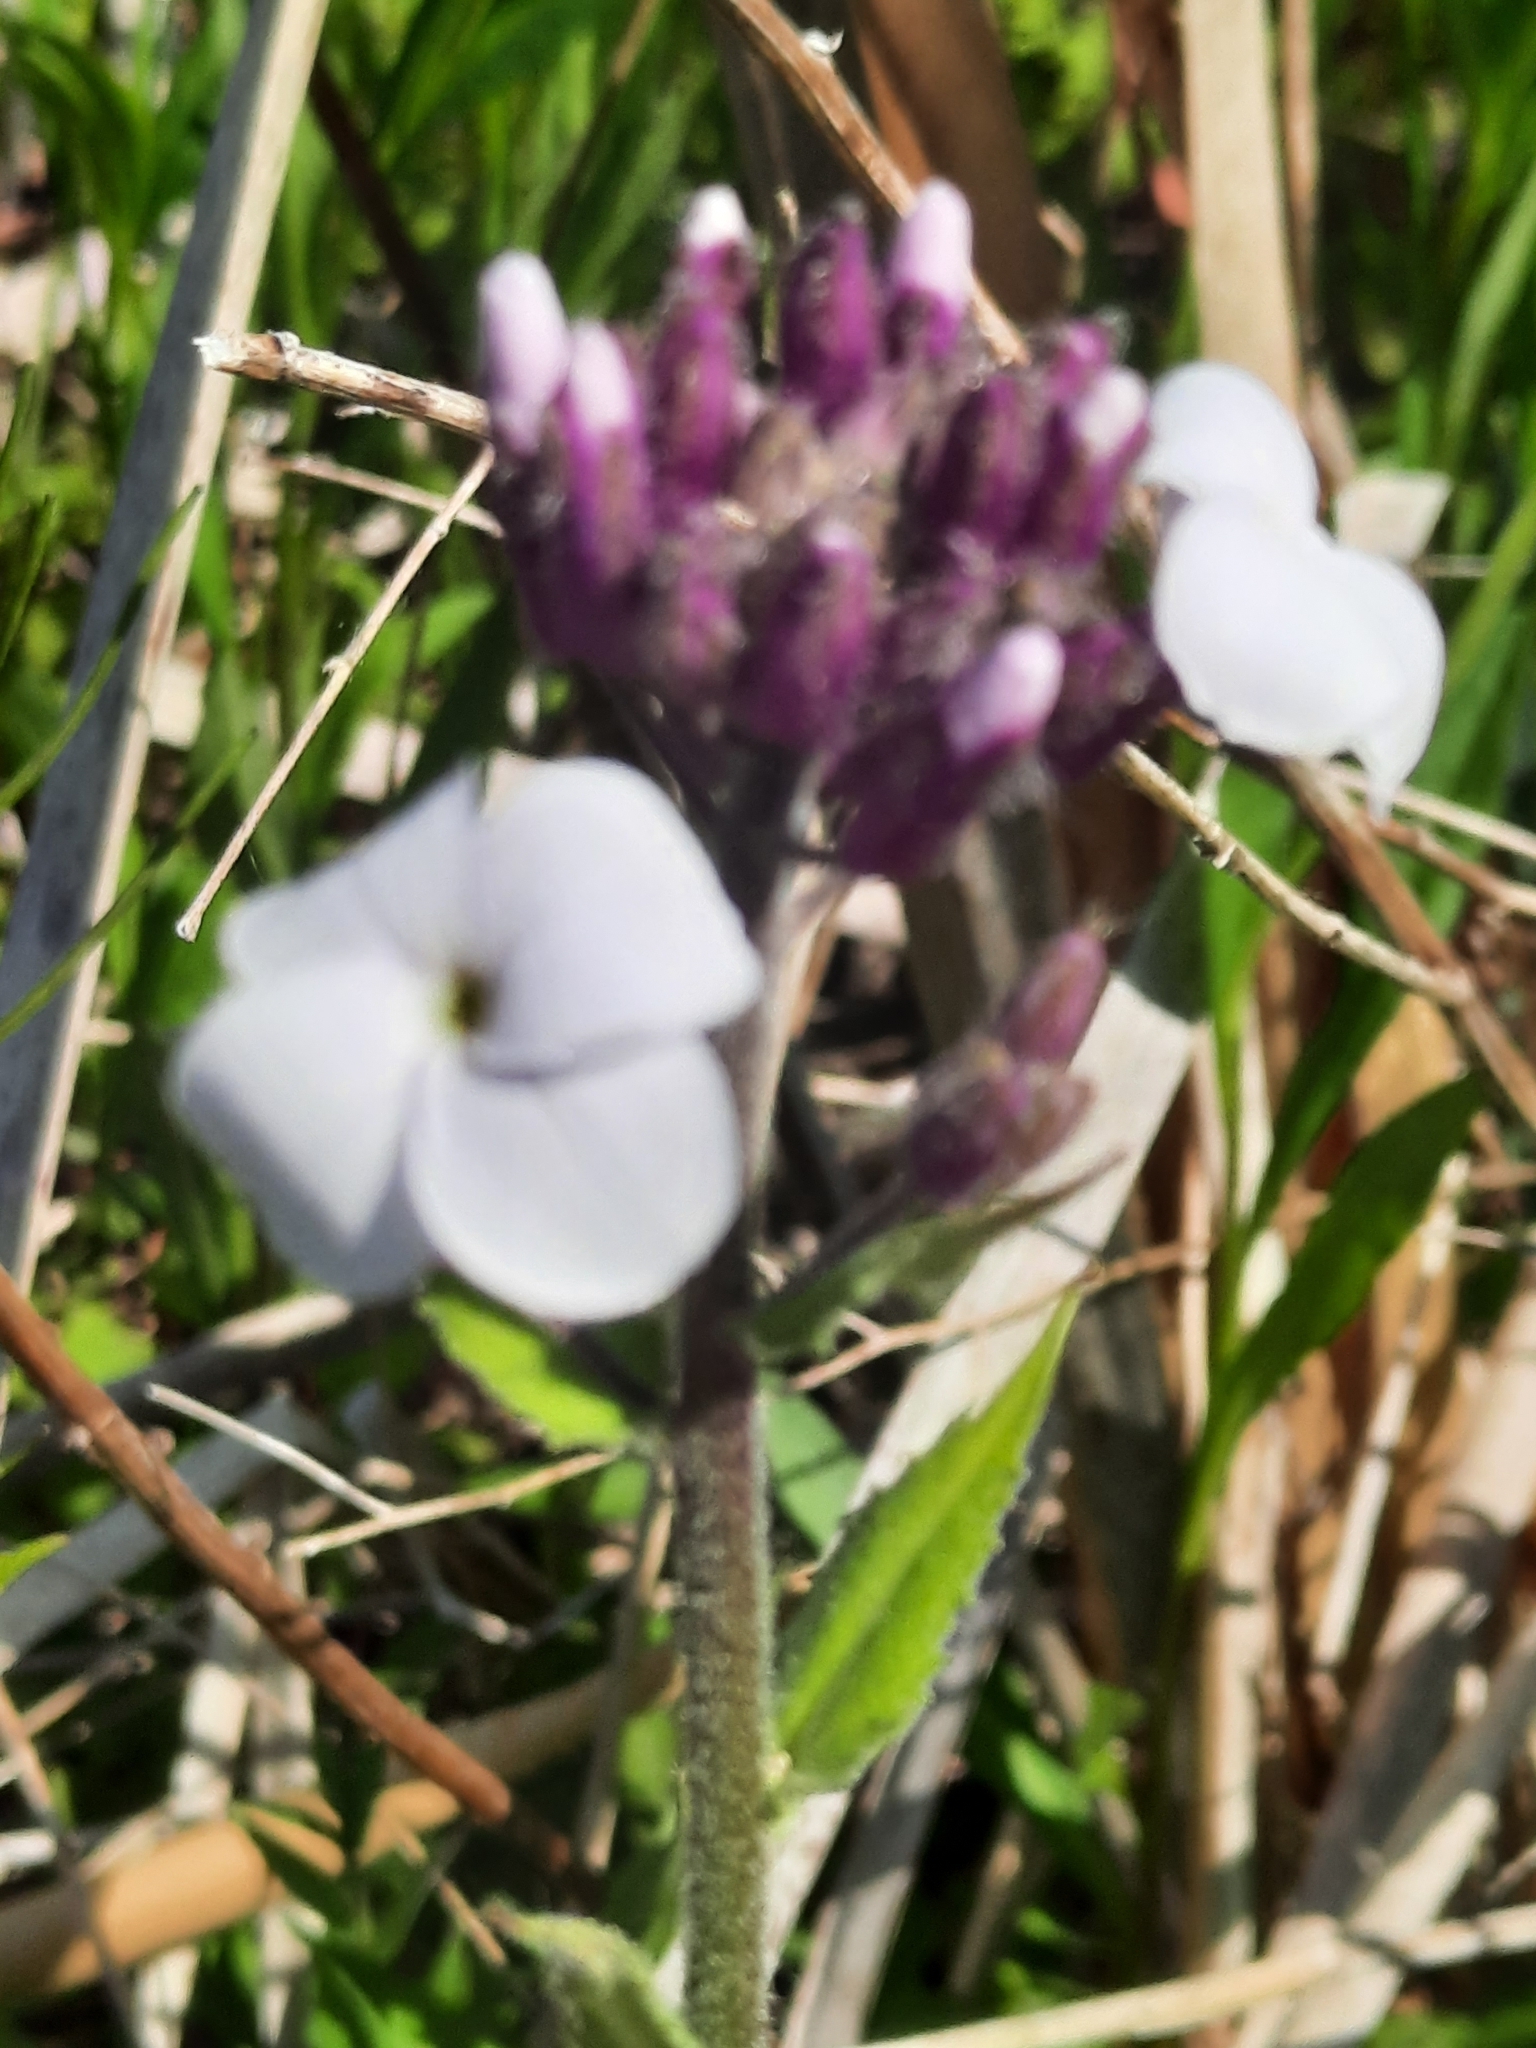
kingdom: Plantae
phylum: Tracheophyta
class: Magnoliopsida
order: Brassicales
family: Brassicaceae
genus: Hesperis
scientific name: Hesperis matronalis
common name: Dame's-violet
